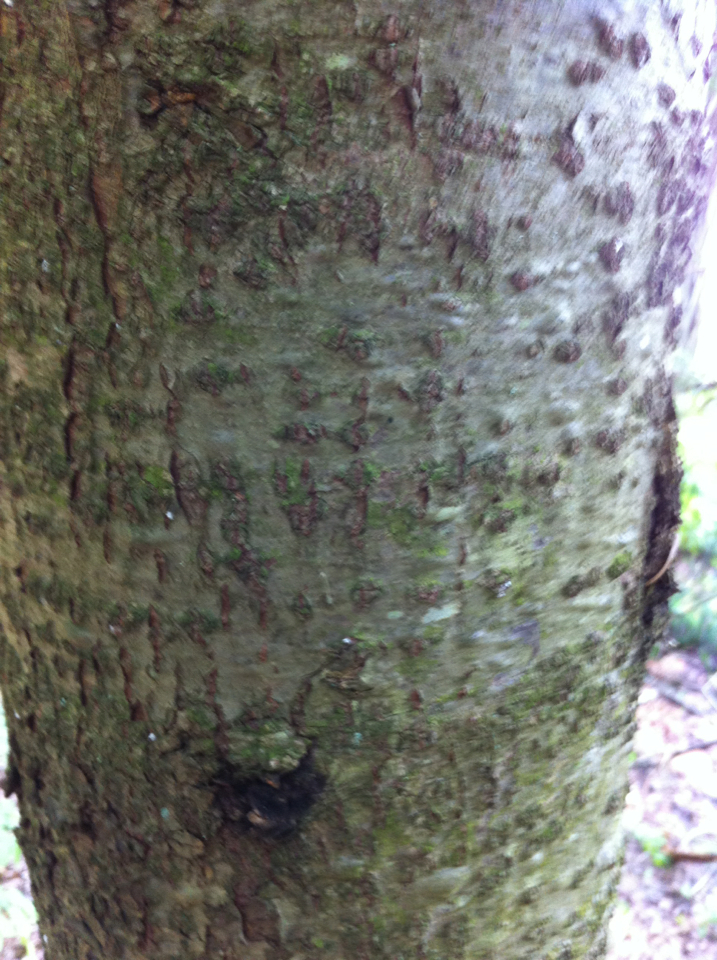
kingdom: Plantae
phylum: Tracheophyta
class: Pinopsida
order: Pinales
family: Pinaceae
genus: Abies
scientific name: Abies balsamea
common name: Balsam fir
